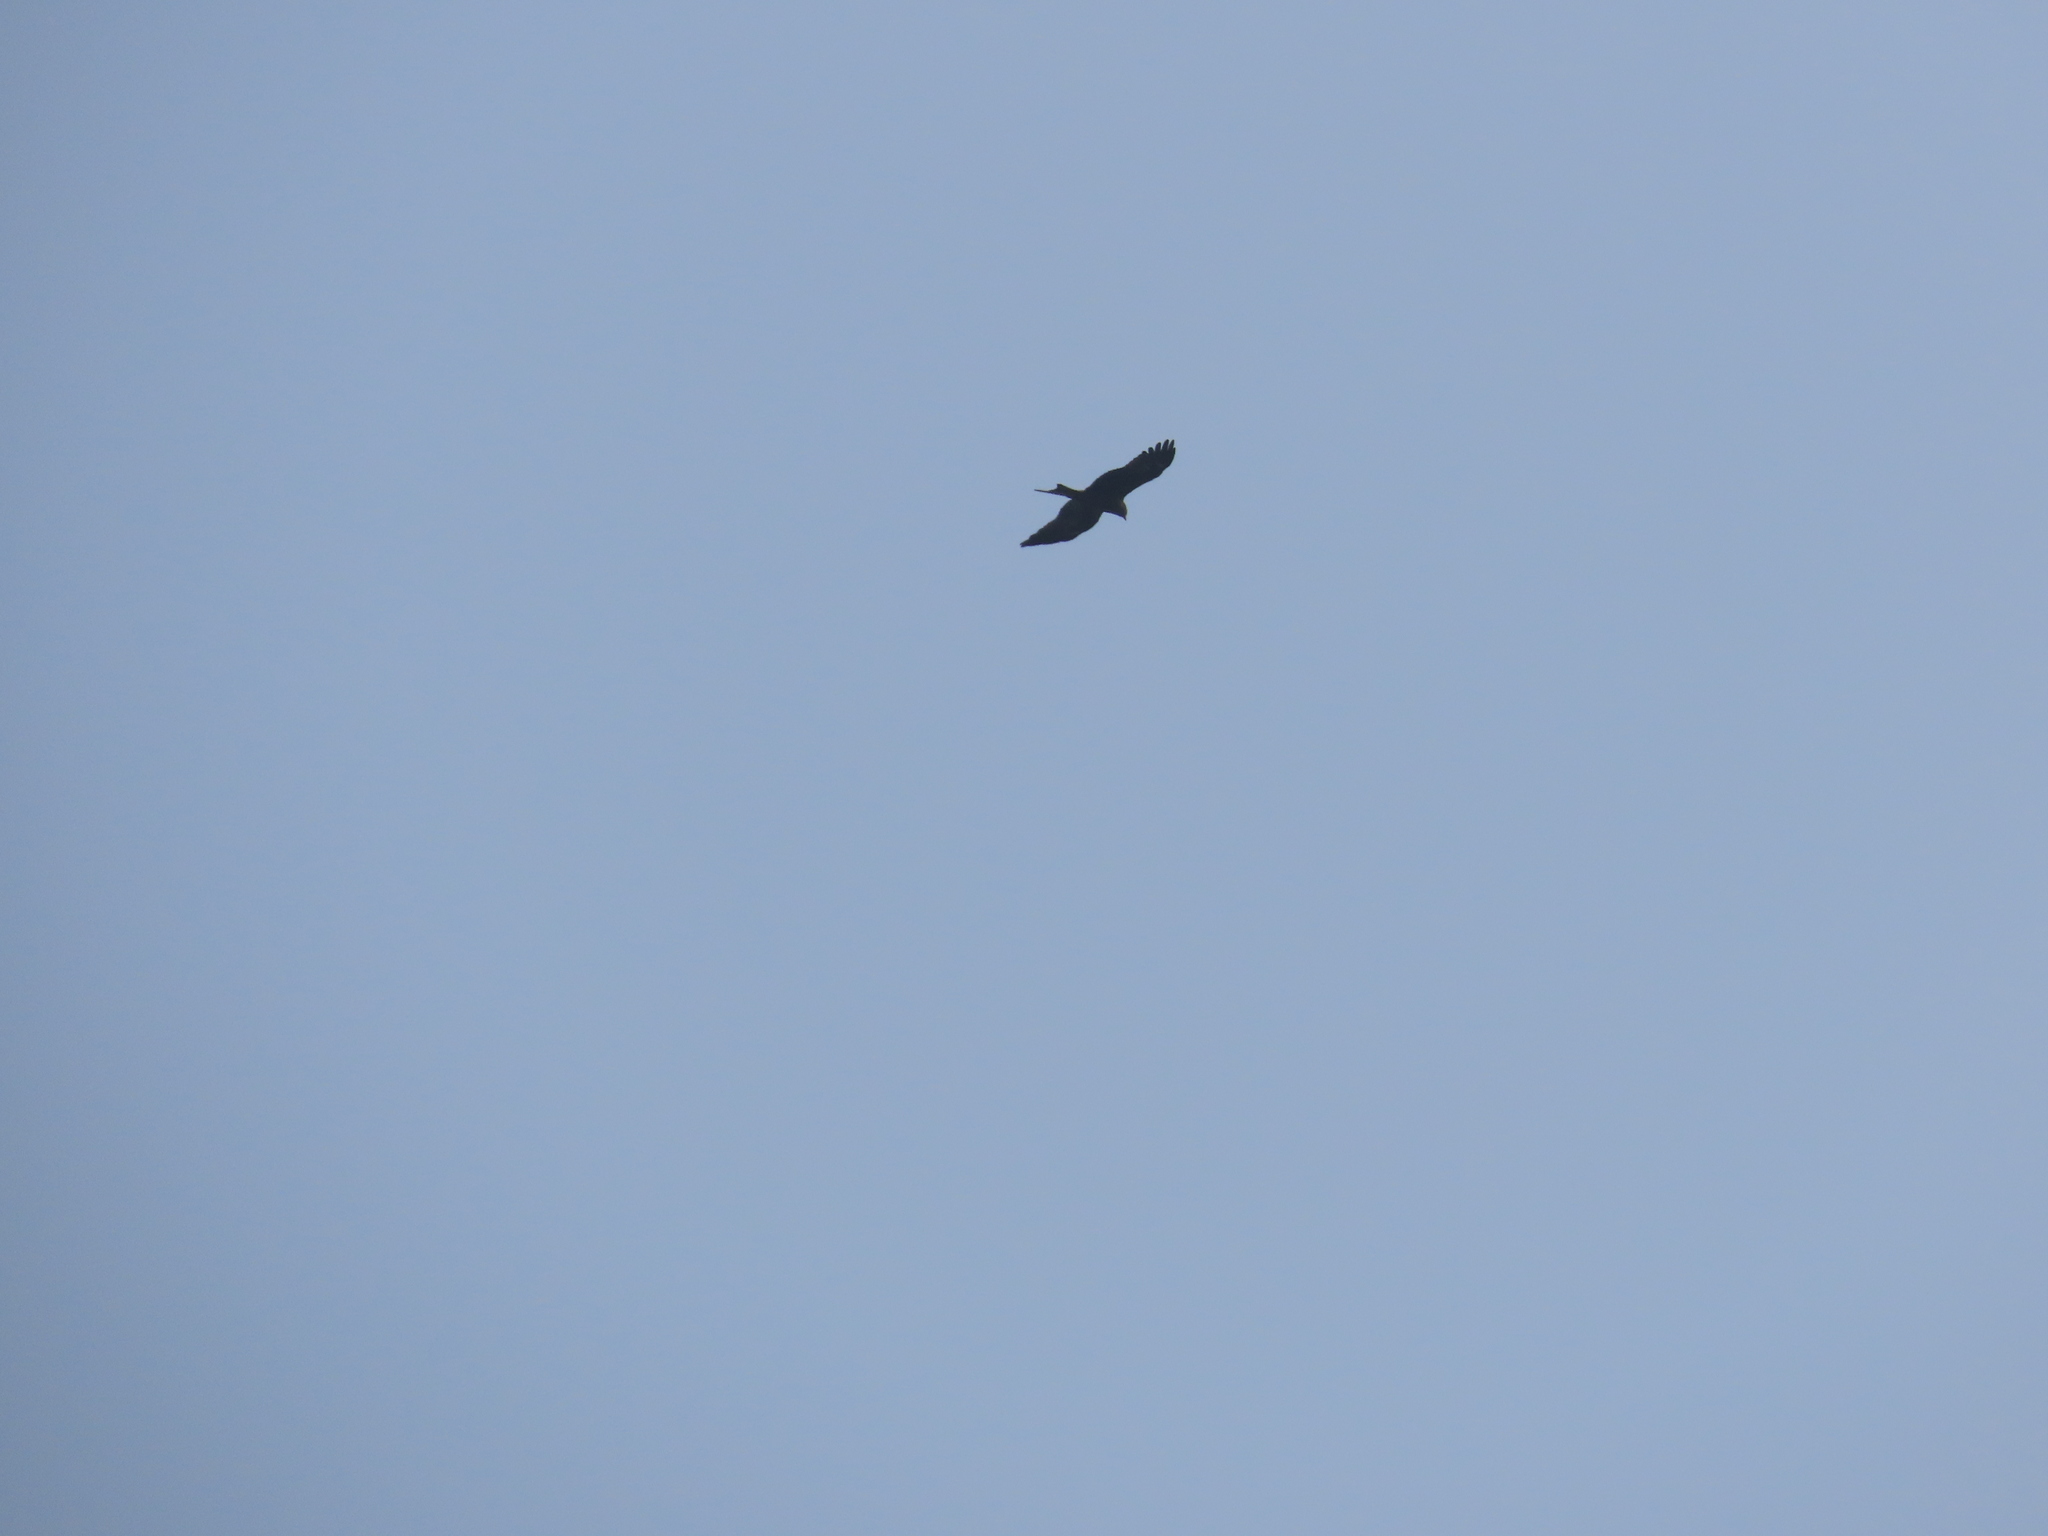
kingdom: Animalia
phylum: Chordata
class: Aves
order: Accipitriformes
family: Accipitridae
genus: Milvus
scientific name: Milvus migrans
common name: Black kite
